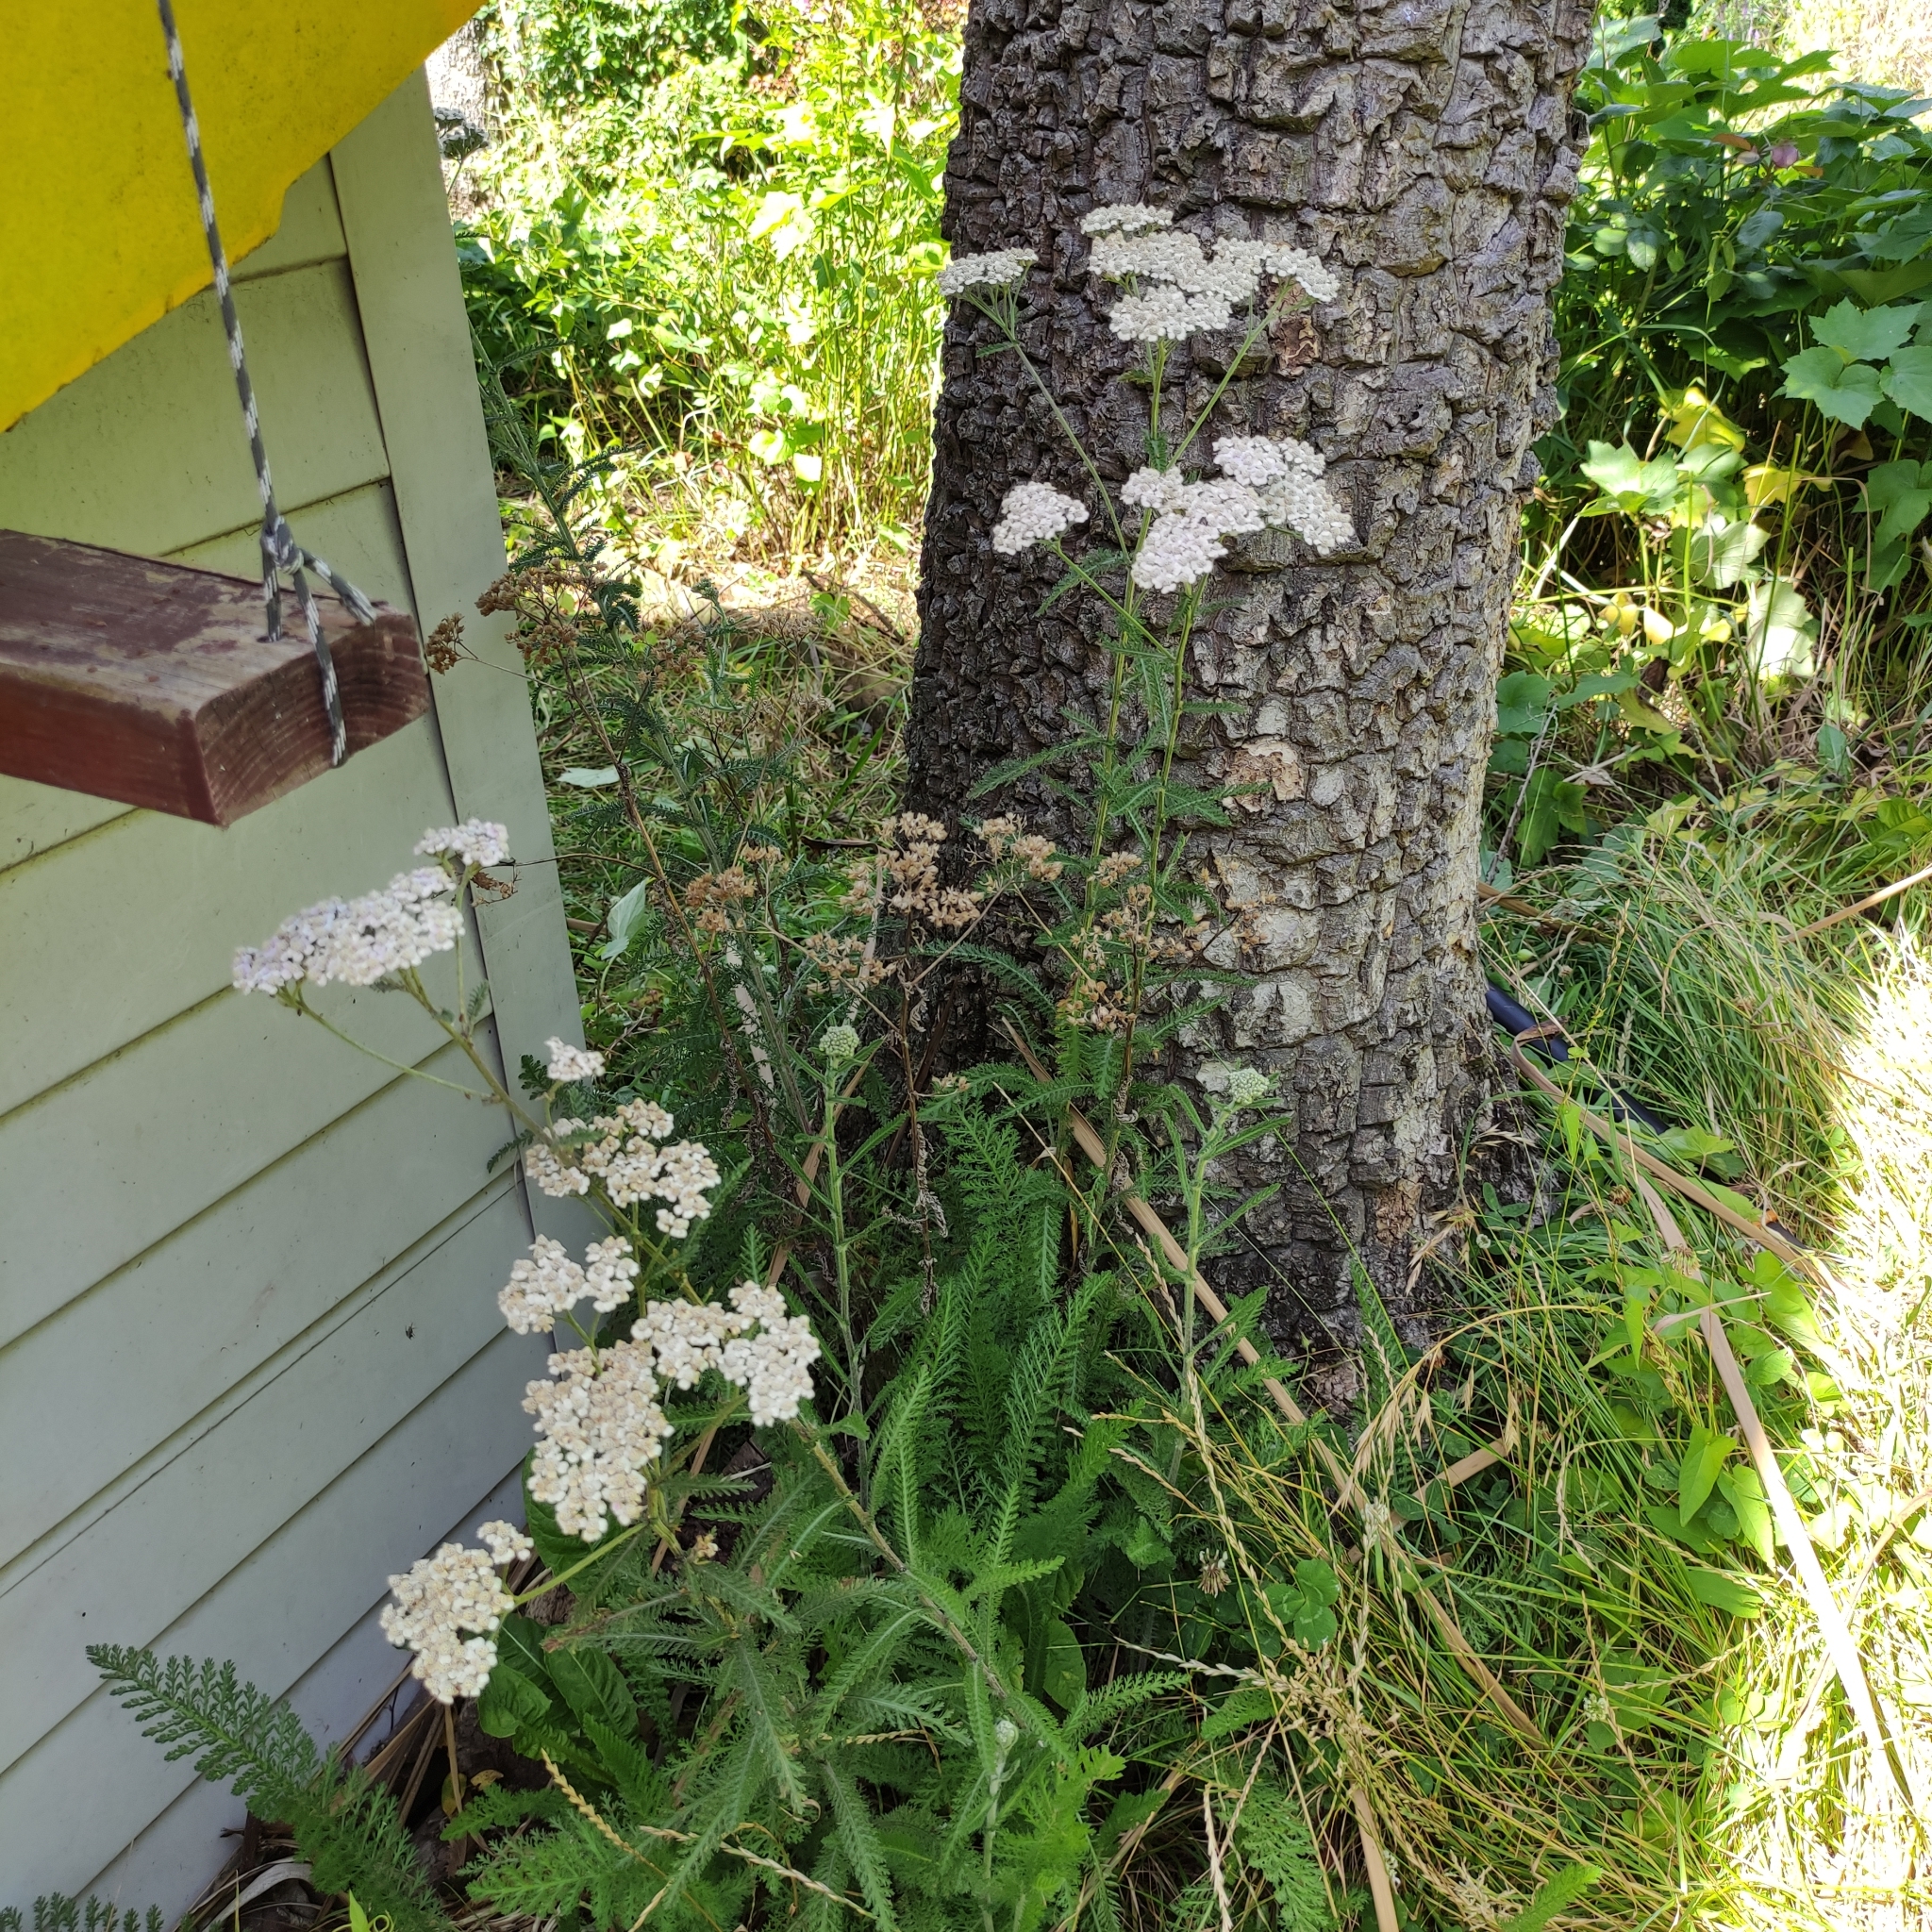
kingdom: Plantae
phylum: Tracheophyta
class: Magnoliopsida
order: Asterales
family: Asteraceae
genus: Achillea
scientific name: Achillea millefolium
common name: Yarrow
